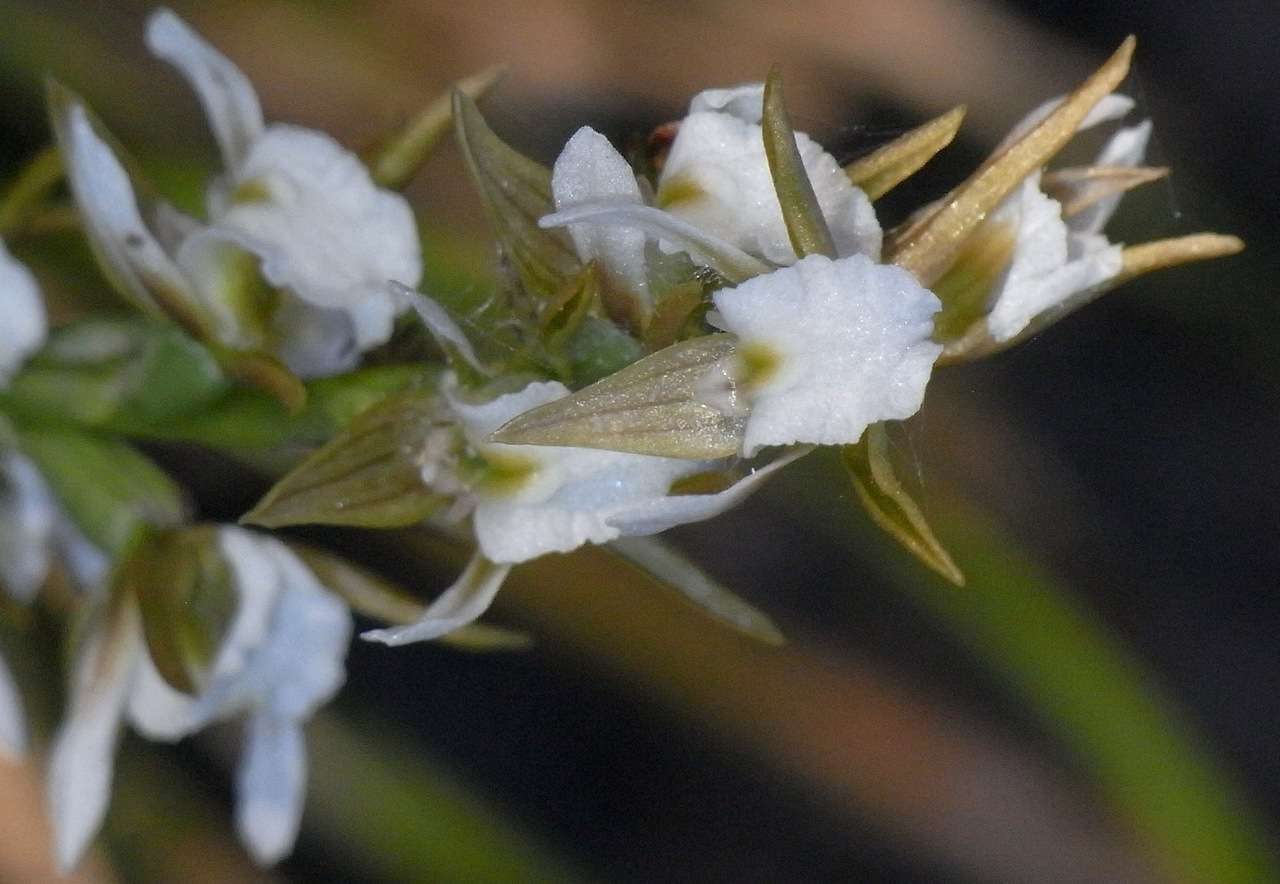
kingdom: Plantae
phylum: Tracheophyta
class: Liliopsida
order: Asparagales
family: Orchidaceae
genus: Prasophyllum
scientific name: Prasophyllum odoratum
